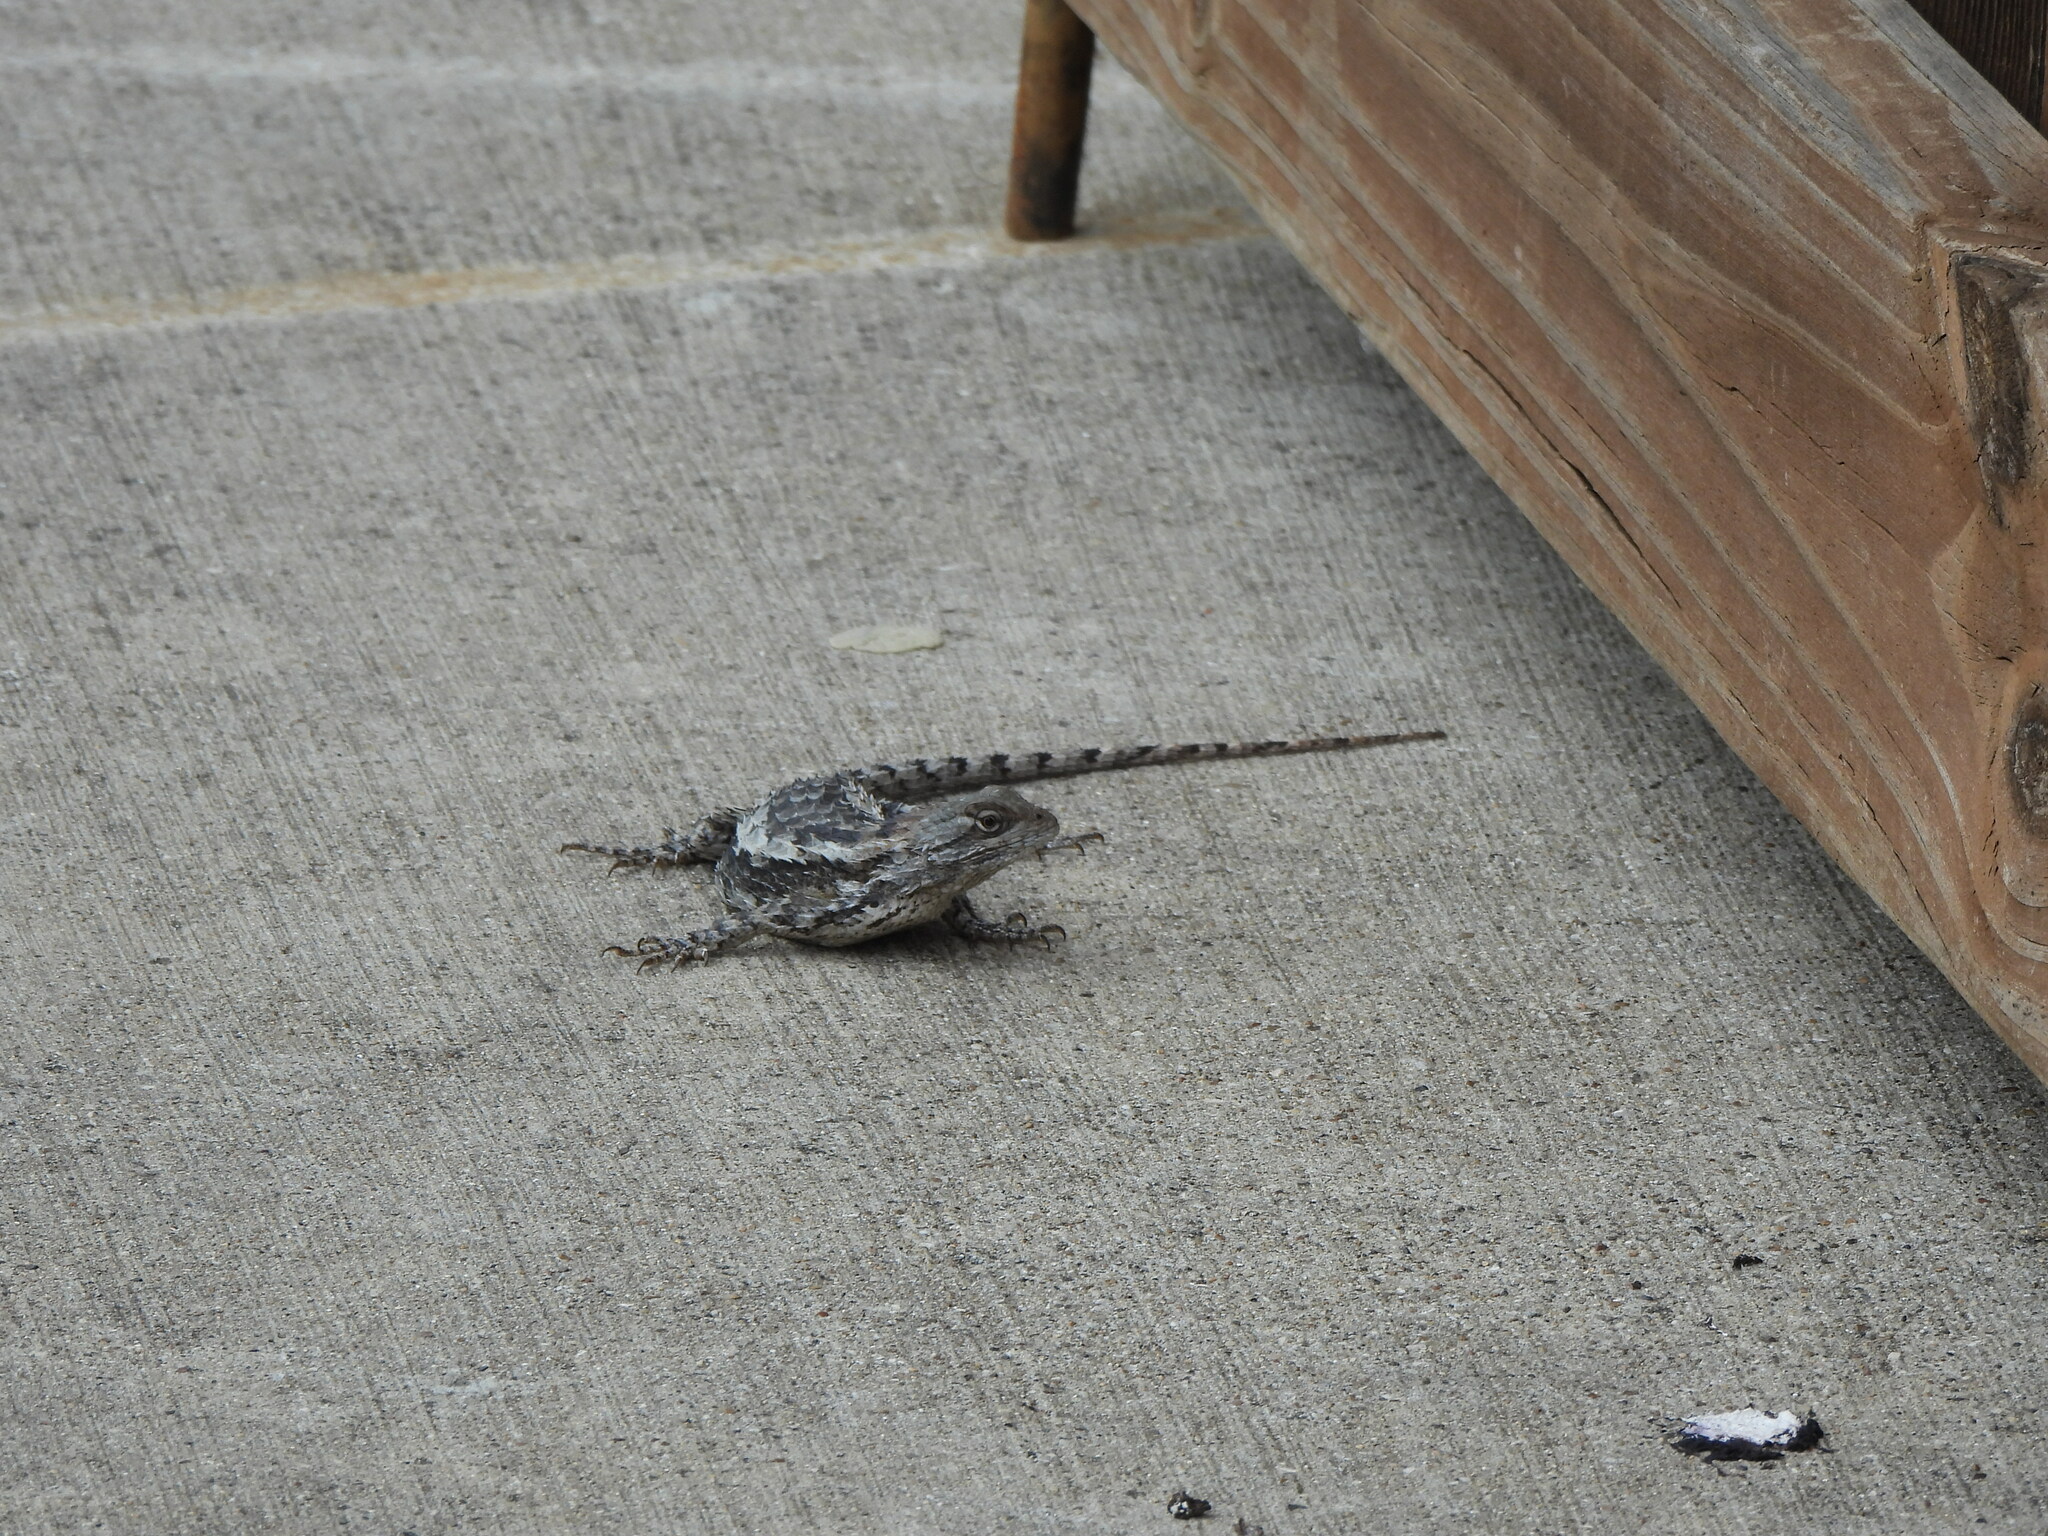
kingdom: Animalia
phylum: Chordata
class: Squamata
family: Phrynosomatidae
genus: Sceloporus
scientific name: Sceloporus olivaceus
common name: Texas spiny lizard
